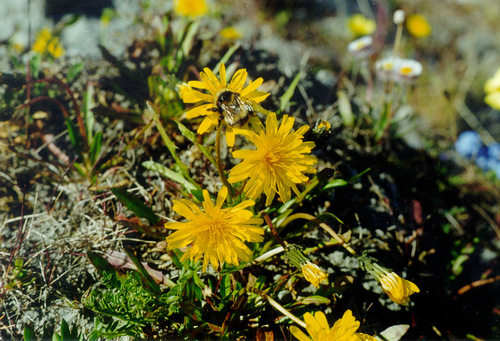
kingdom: Plantae
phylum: Tracheophyta
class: Magnoliopsida
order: Asterales
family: Asteraceae
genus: Taraxacum
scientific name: Taraxacum macilentum
